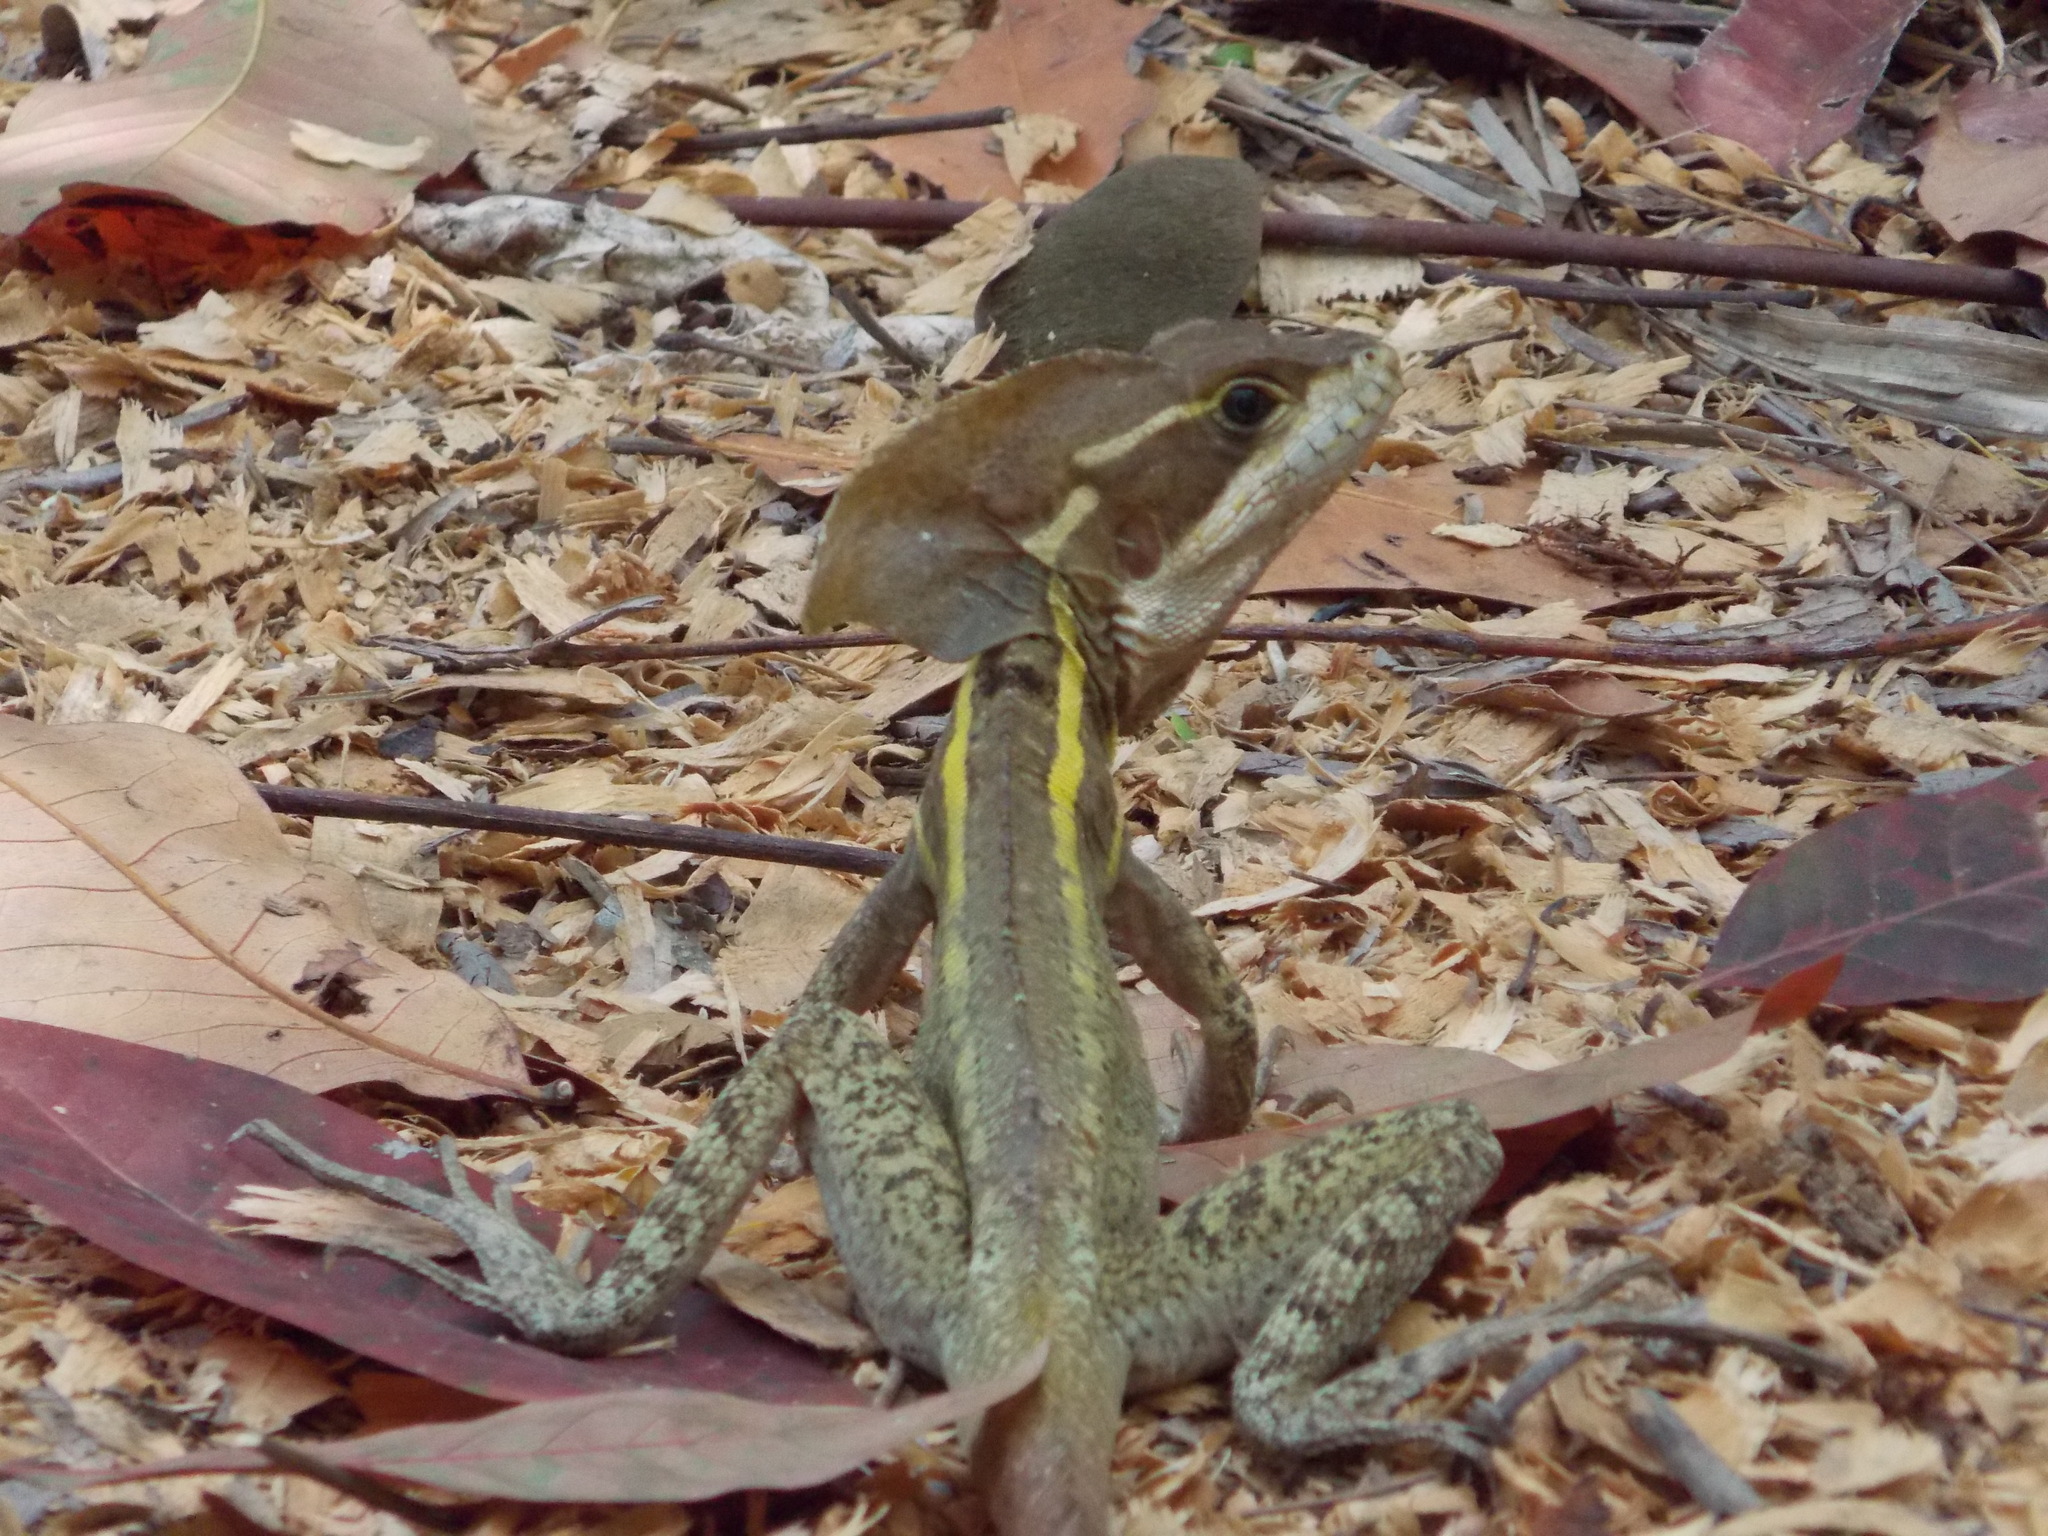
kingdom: Animalia
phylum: Chordata
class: Squamata
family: Corytophanidae
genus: Basiliscus
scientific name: Basiliscus vittatus
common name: Brown basilisk
